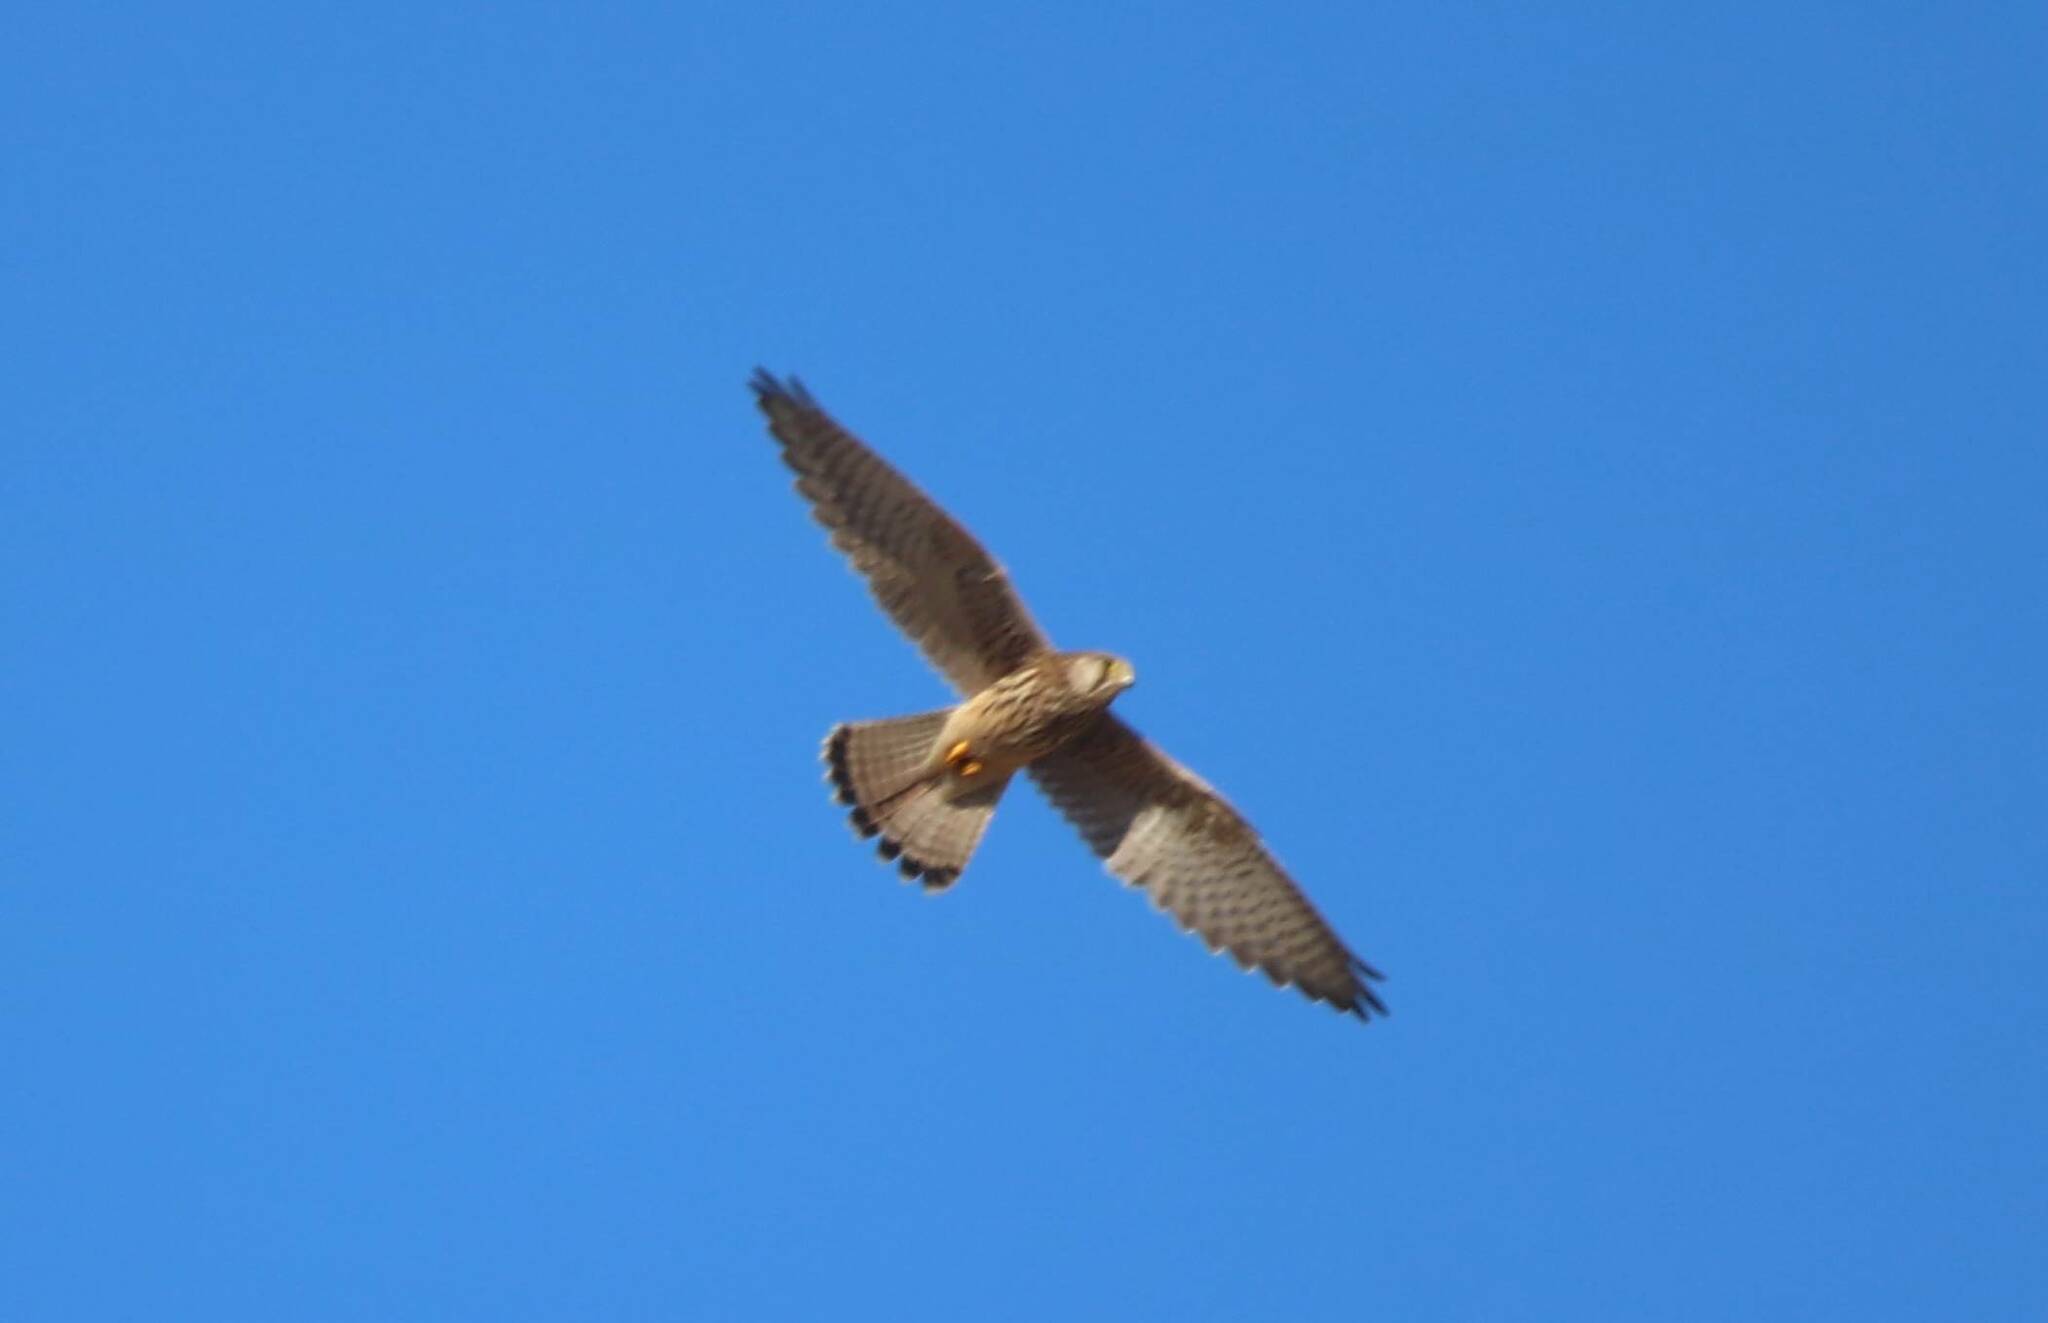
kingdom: Animalia
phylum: Chordata
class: Aves
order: Falconiformes
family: Falconidae
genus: Falco
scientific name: Falco tinnunculus
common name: Common kestrel
